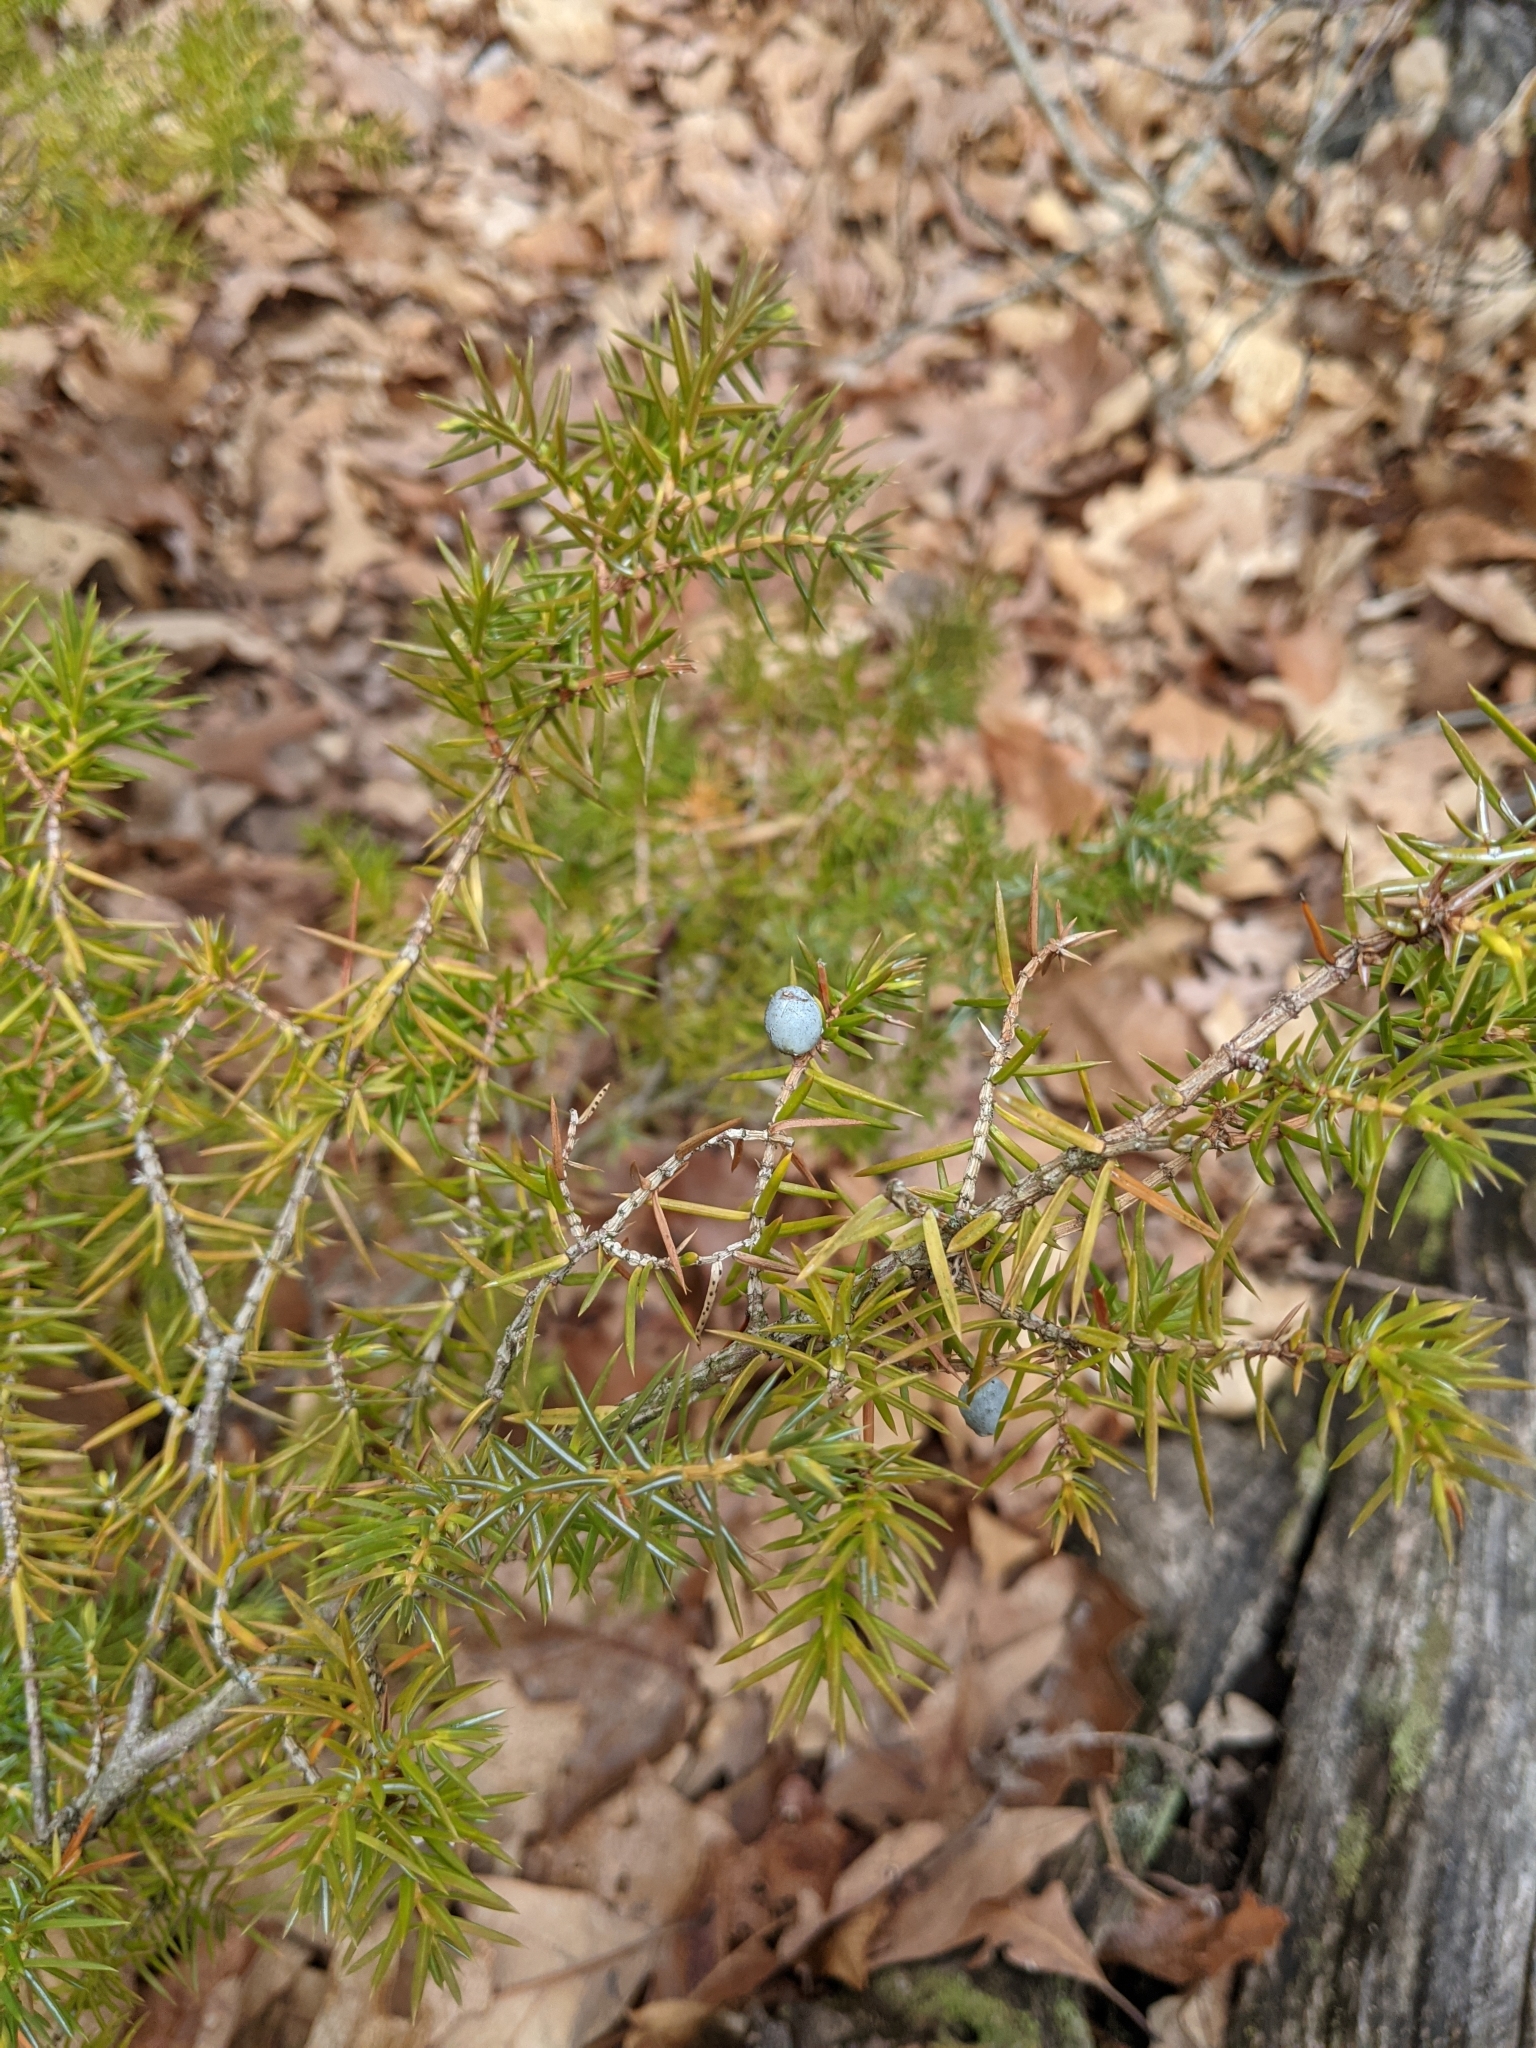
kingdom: Plantae
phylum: Tracheophyta
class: Pinopsida
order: Pinales
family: Cupressaceae
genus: Juniperus
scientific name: Juniperus communis
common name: Common juniper
